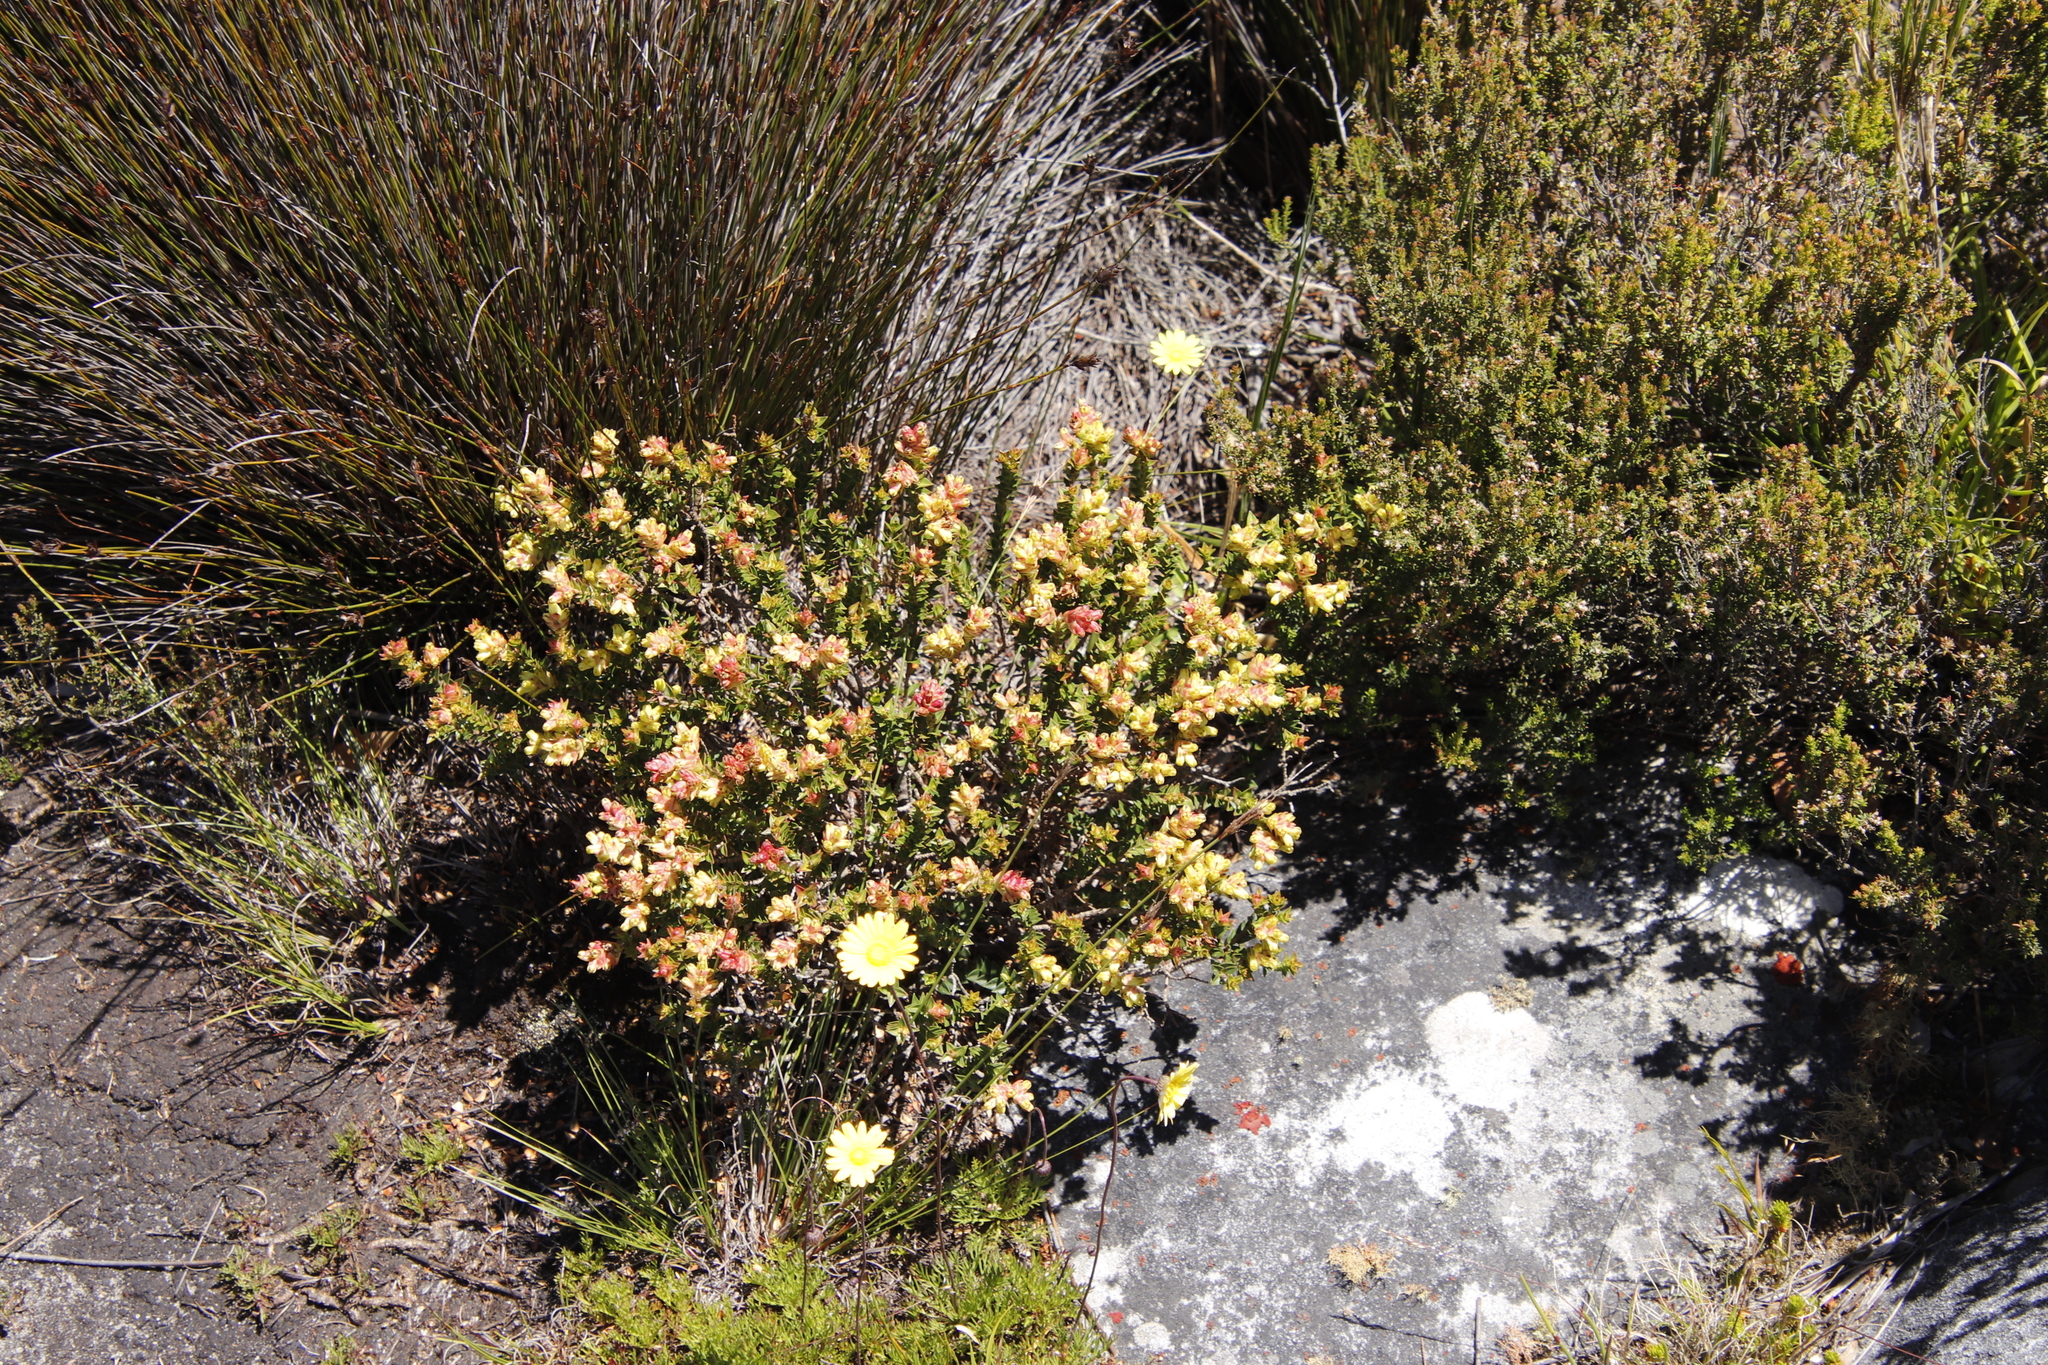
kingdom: Plantae
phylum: Tracheophyta
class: Magnoliopsida
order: Myrtales
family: Penaeaceae
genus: Penaea
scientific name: Penaea mucronata
